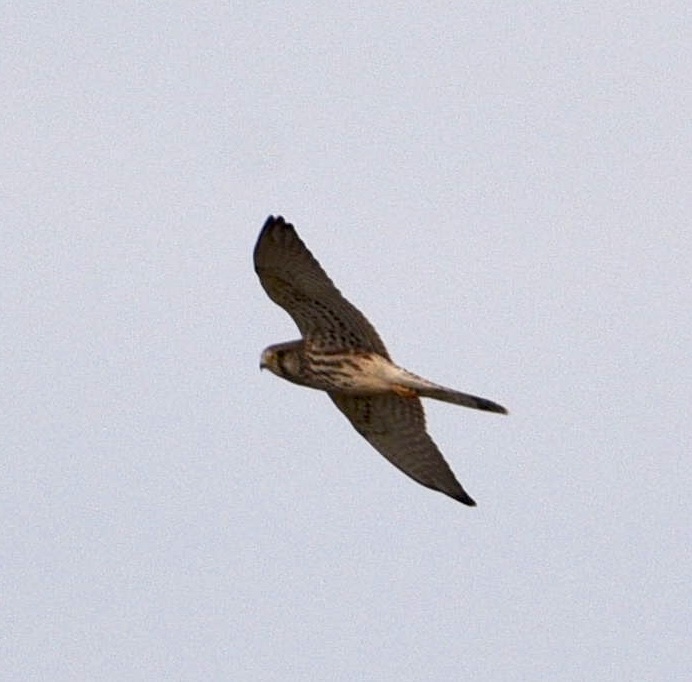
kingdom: Animalia
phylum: Chordata
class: Aves
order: Falconiformes
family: Falconidae
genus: Falco
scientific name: Falco tinnunculus
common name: Common kestrel
